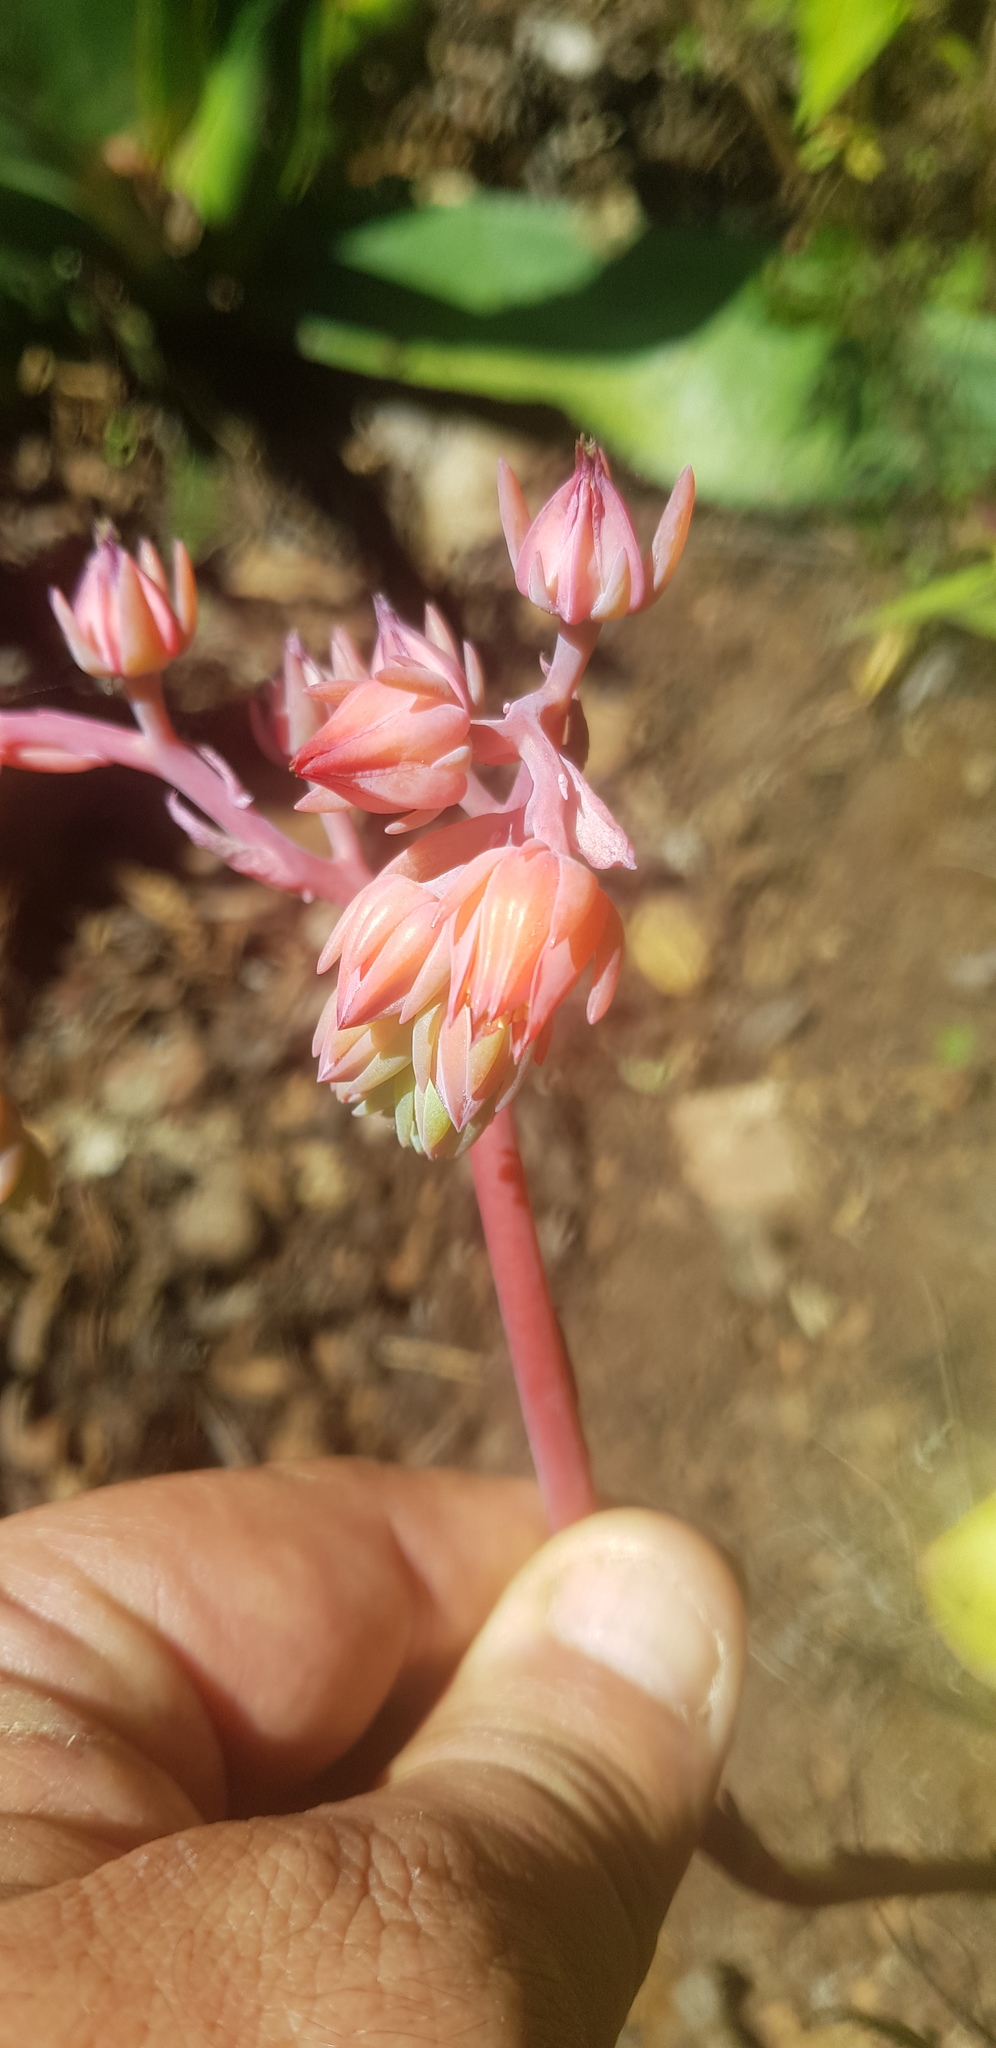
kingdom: Plantae
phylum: Tracheophyta
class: Magnoliopsida
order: Saxifragales
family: Crassulaceae
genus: Echeveria
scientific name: Echeveria juarezensis
